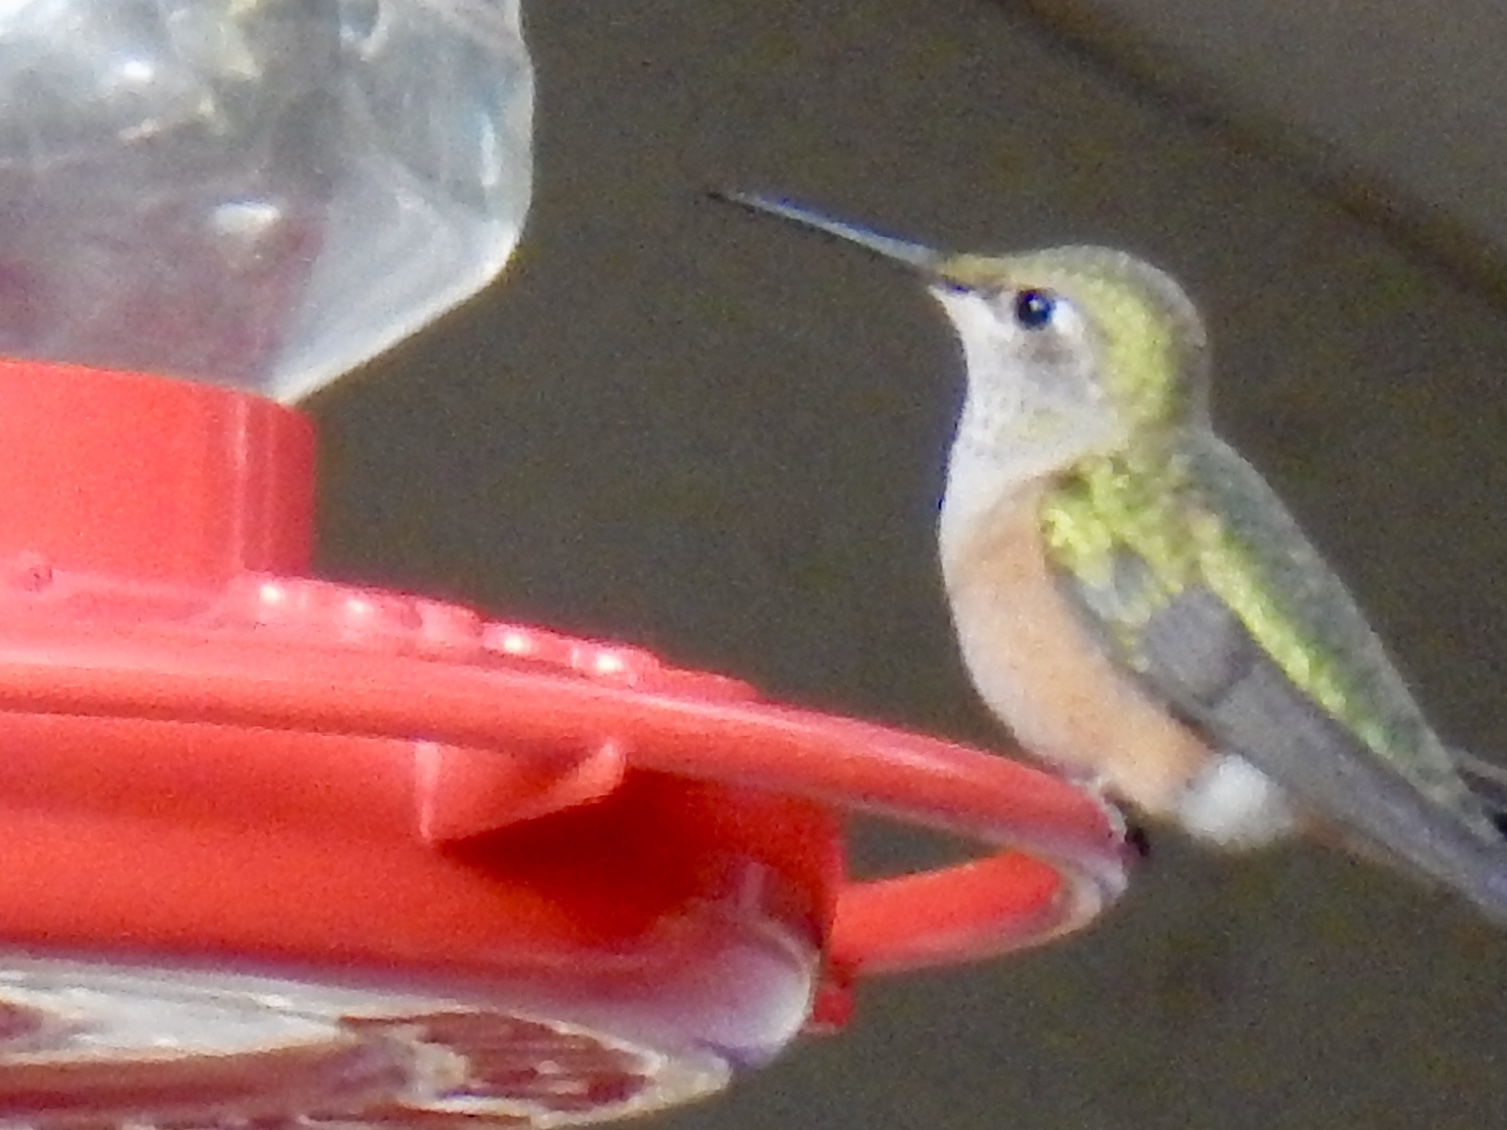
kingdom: Animalia
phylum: Chordata
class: Aves
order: Apodiformes
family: Trochilidae
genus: Selasphorus
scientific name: Selasphorus platycercus
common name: Broad-tailed hummingbird
